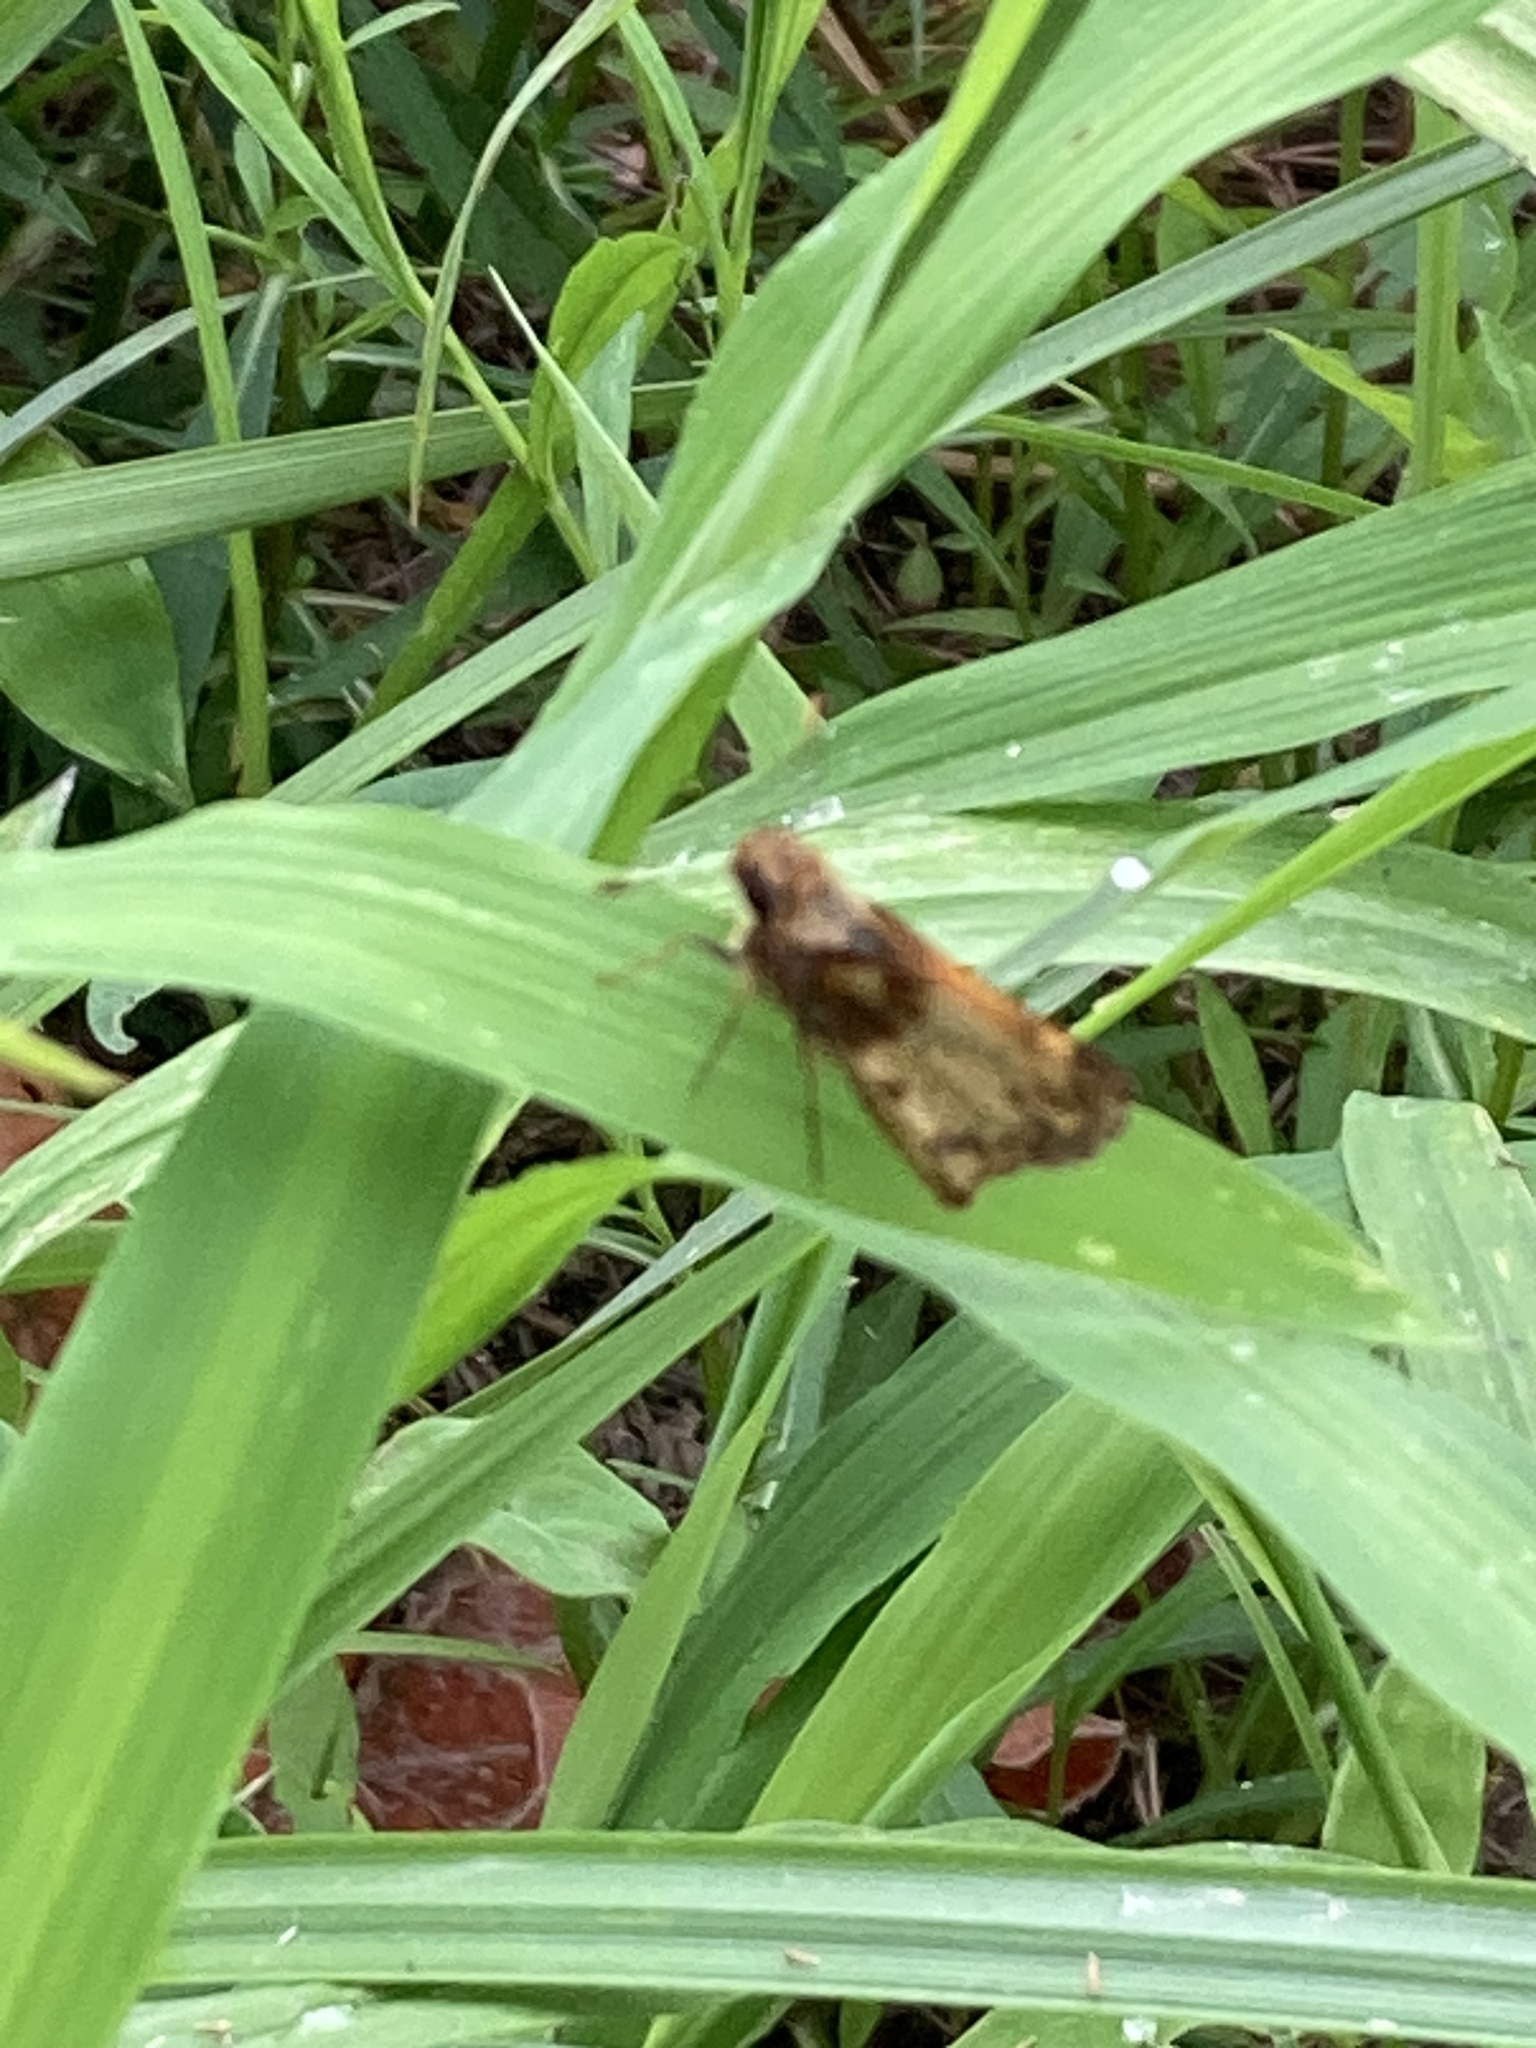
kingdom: Animalia
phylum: Arthropoda
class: Insecta
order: Lepidoptera
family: Hesperiidae
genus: Lon
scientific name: Lon zabulon
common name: Zabulon skipper
